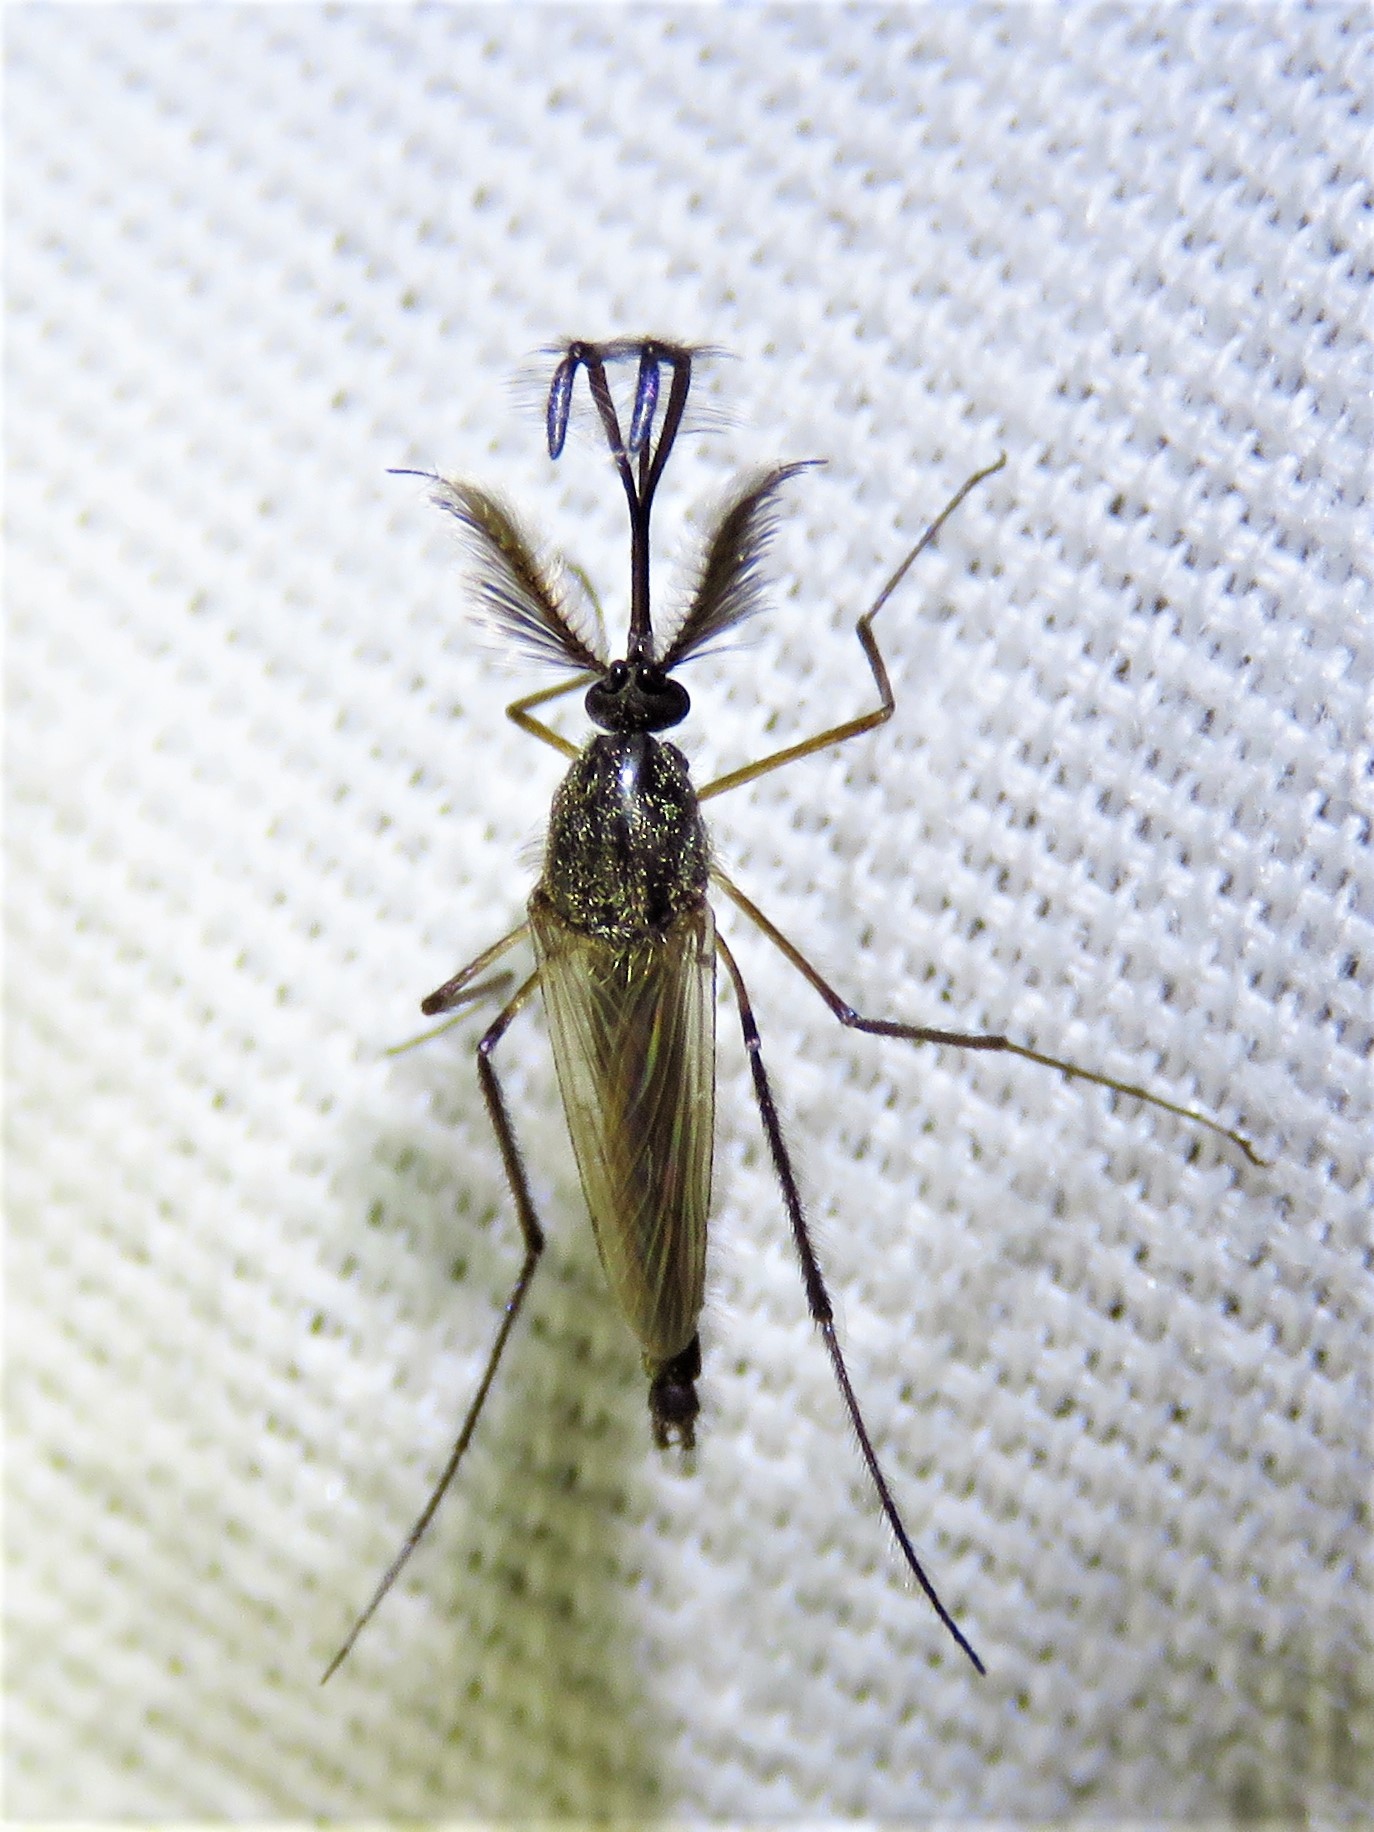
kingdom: Animalia
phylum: Arthropoda
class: Insecta
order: Diptera
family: Culicidae
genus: Psorophora
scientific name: Psorophora cyanescens
